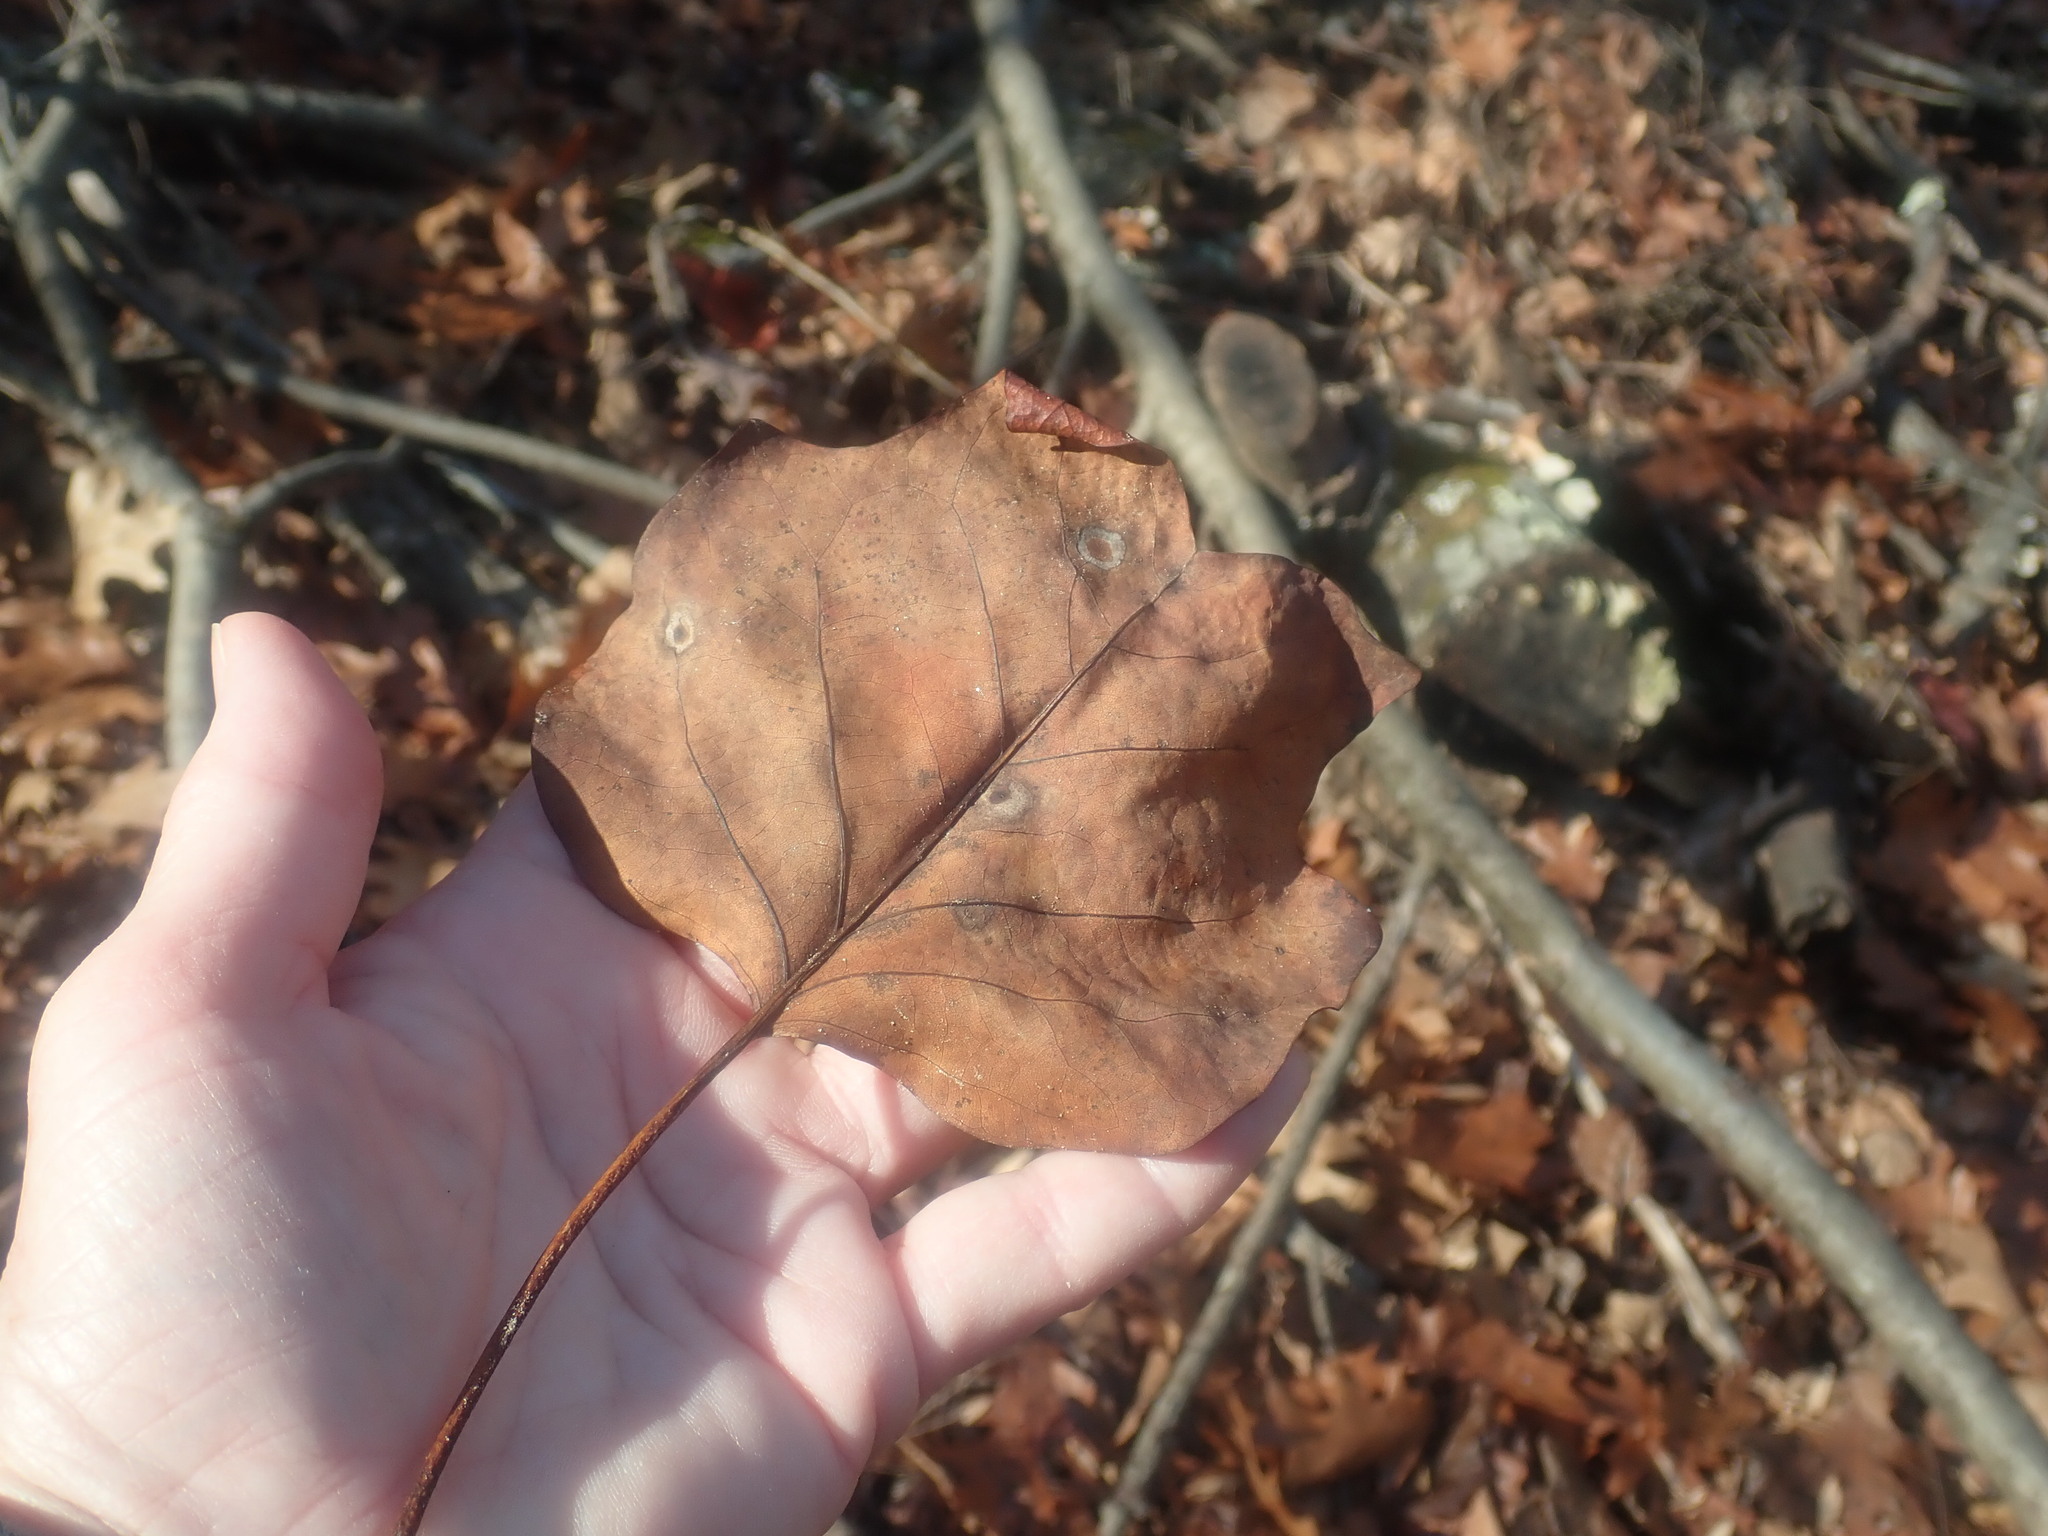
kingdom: Plantae
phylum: Tracheophyta
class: Magnoliopsida
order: Magnoliales
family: Magnoliaceae
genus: Liriodendron
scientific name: Liriodendron tulipifera
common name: Tulip tree
